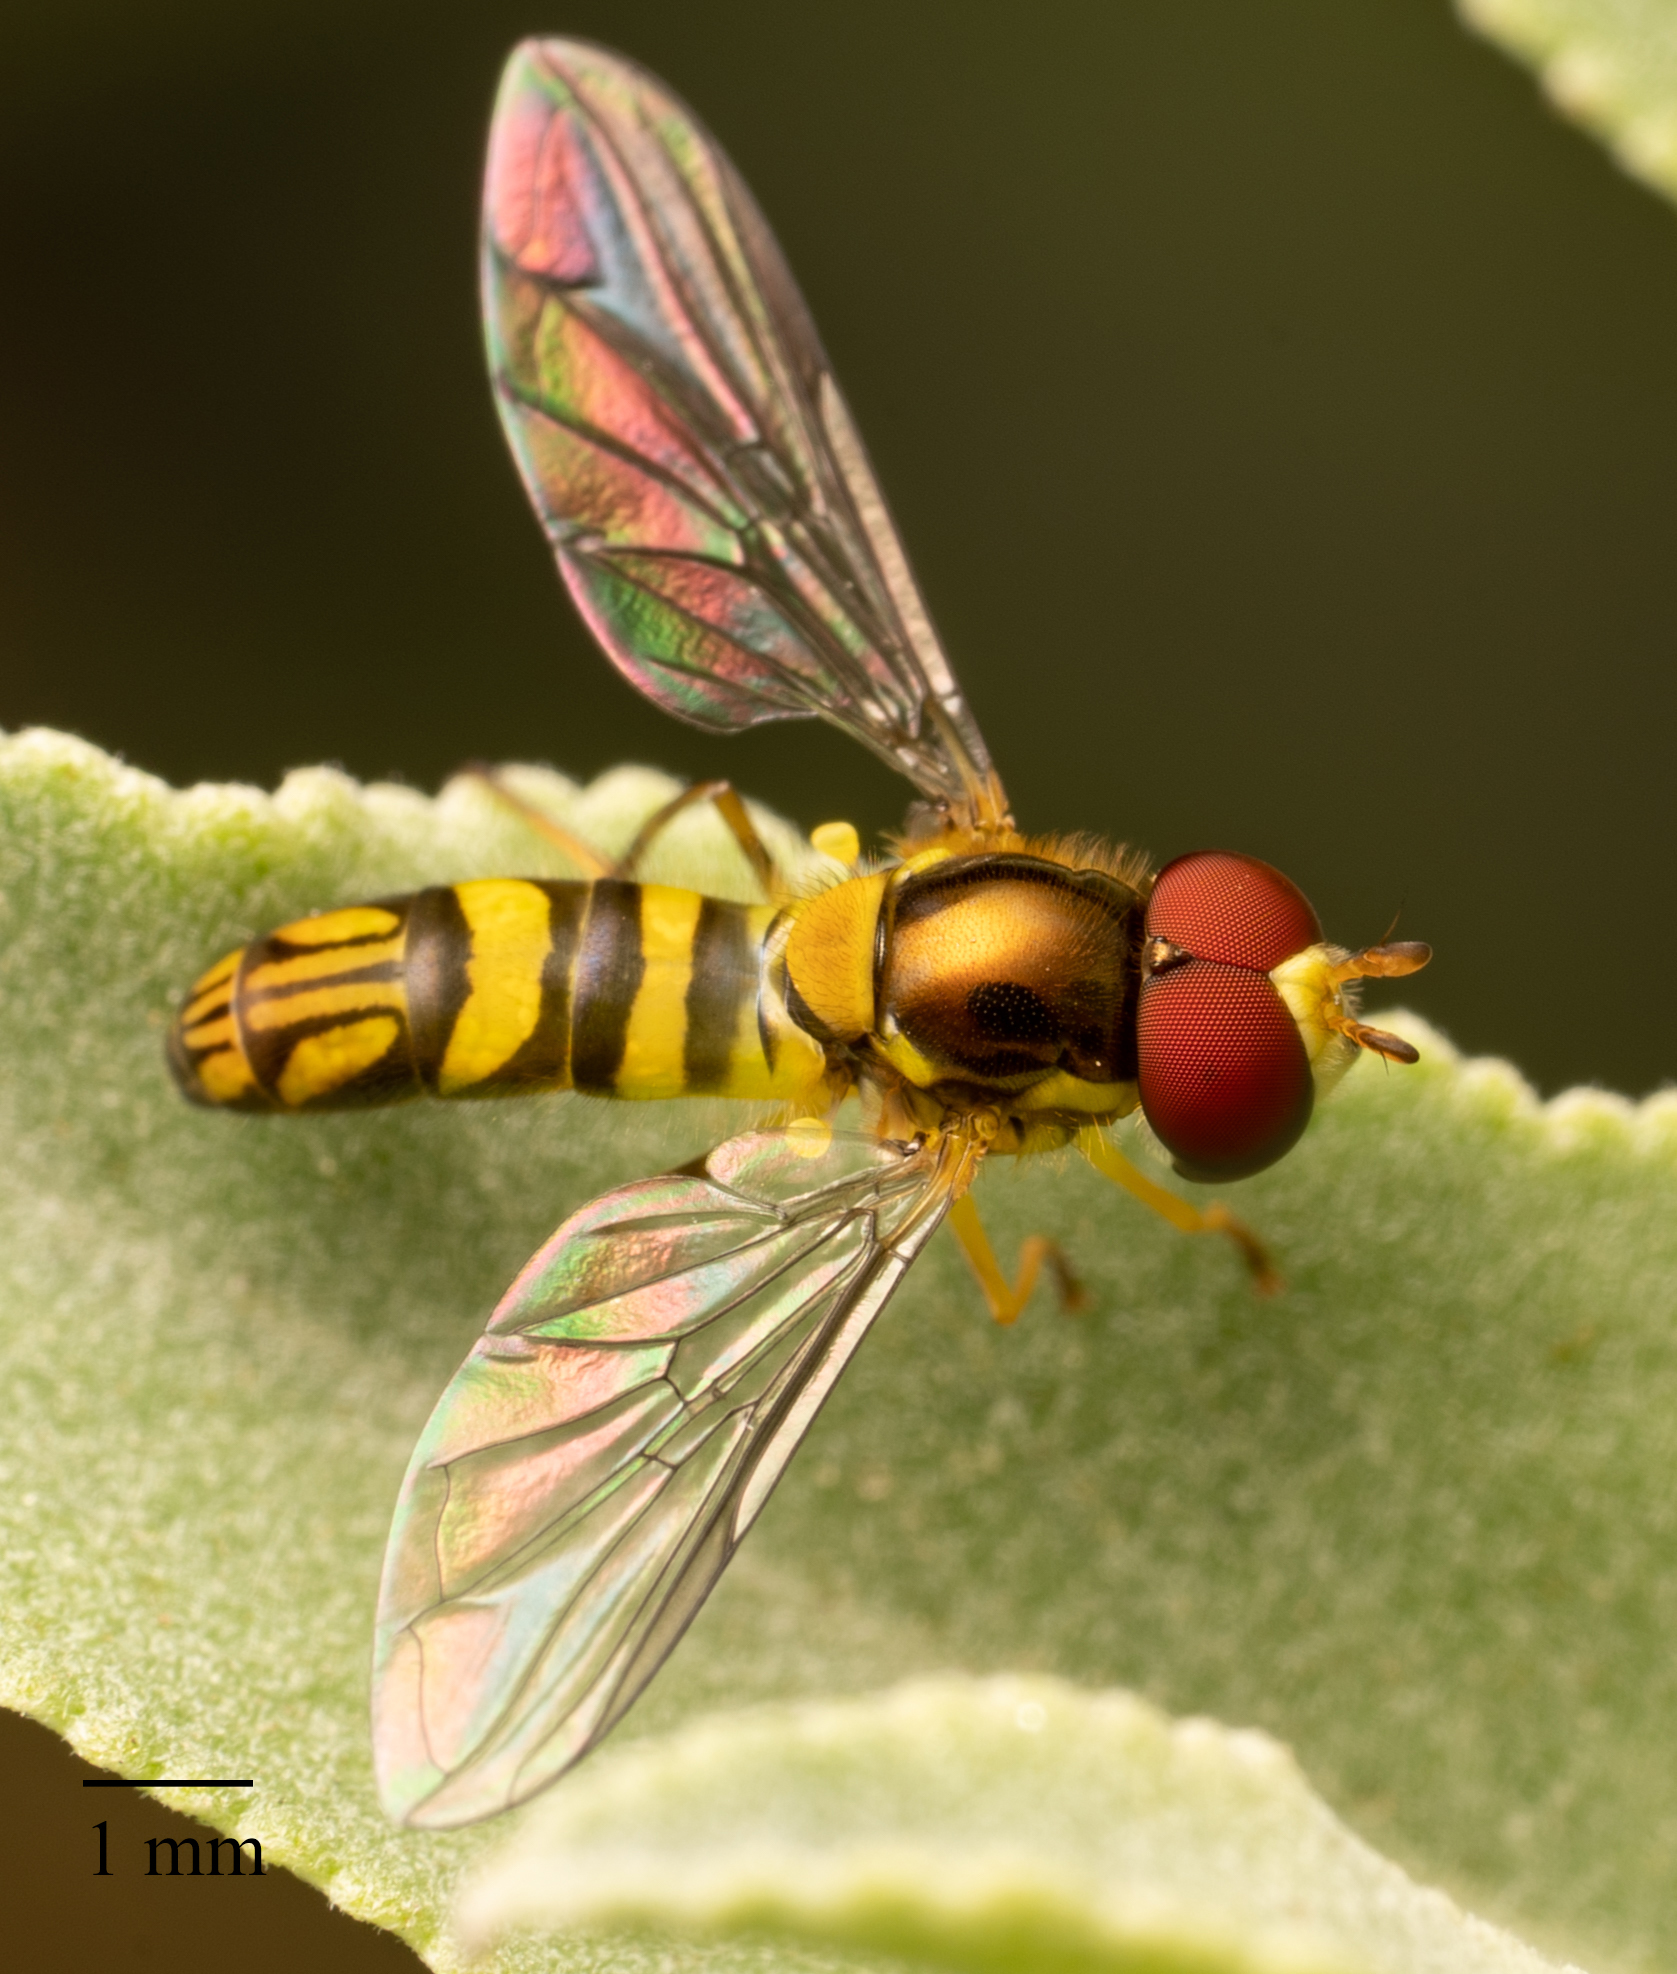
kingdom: Animalia
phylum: Arthropoda
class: Insecta
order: Diptera
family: Syrphidae
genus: Allograpta
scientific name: Allograpta obliqua
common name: Common oblique syrphid
